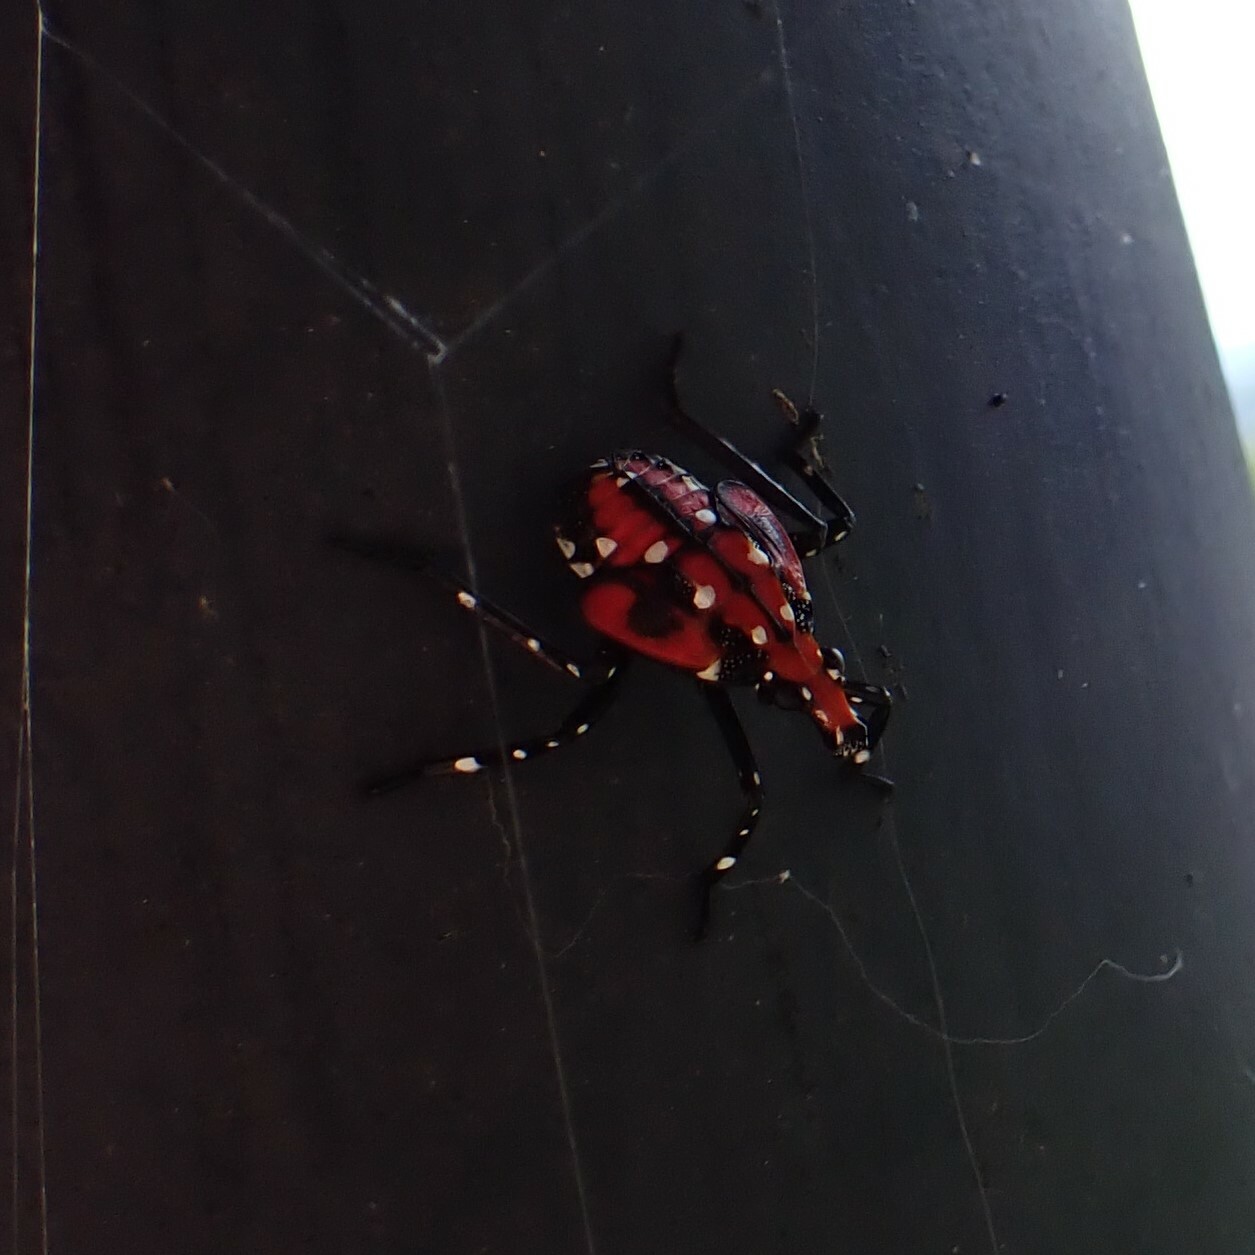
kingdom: Animalia
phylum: Arthropoda
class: Insecta
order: Hemiptera
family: Fulgoridae
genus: Lycorma
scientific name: Lycorma delicatula
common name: Spotted lanternfly
